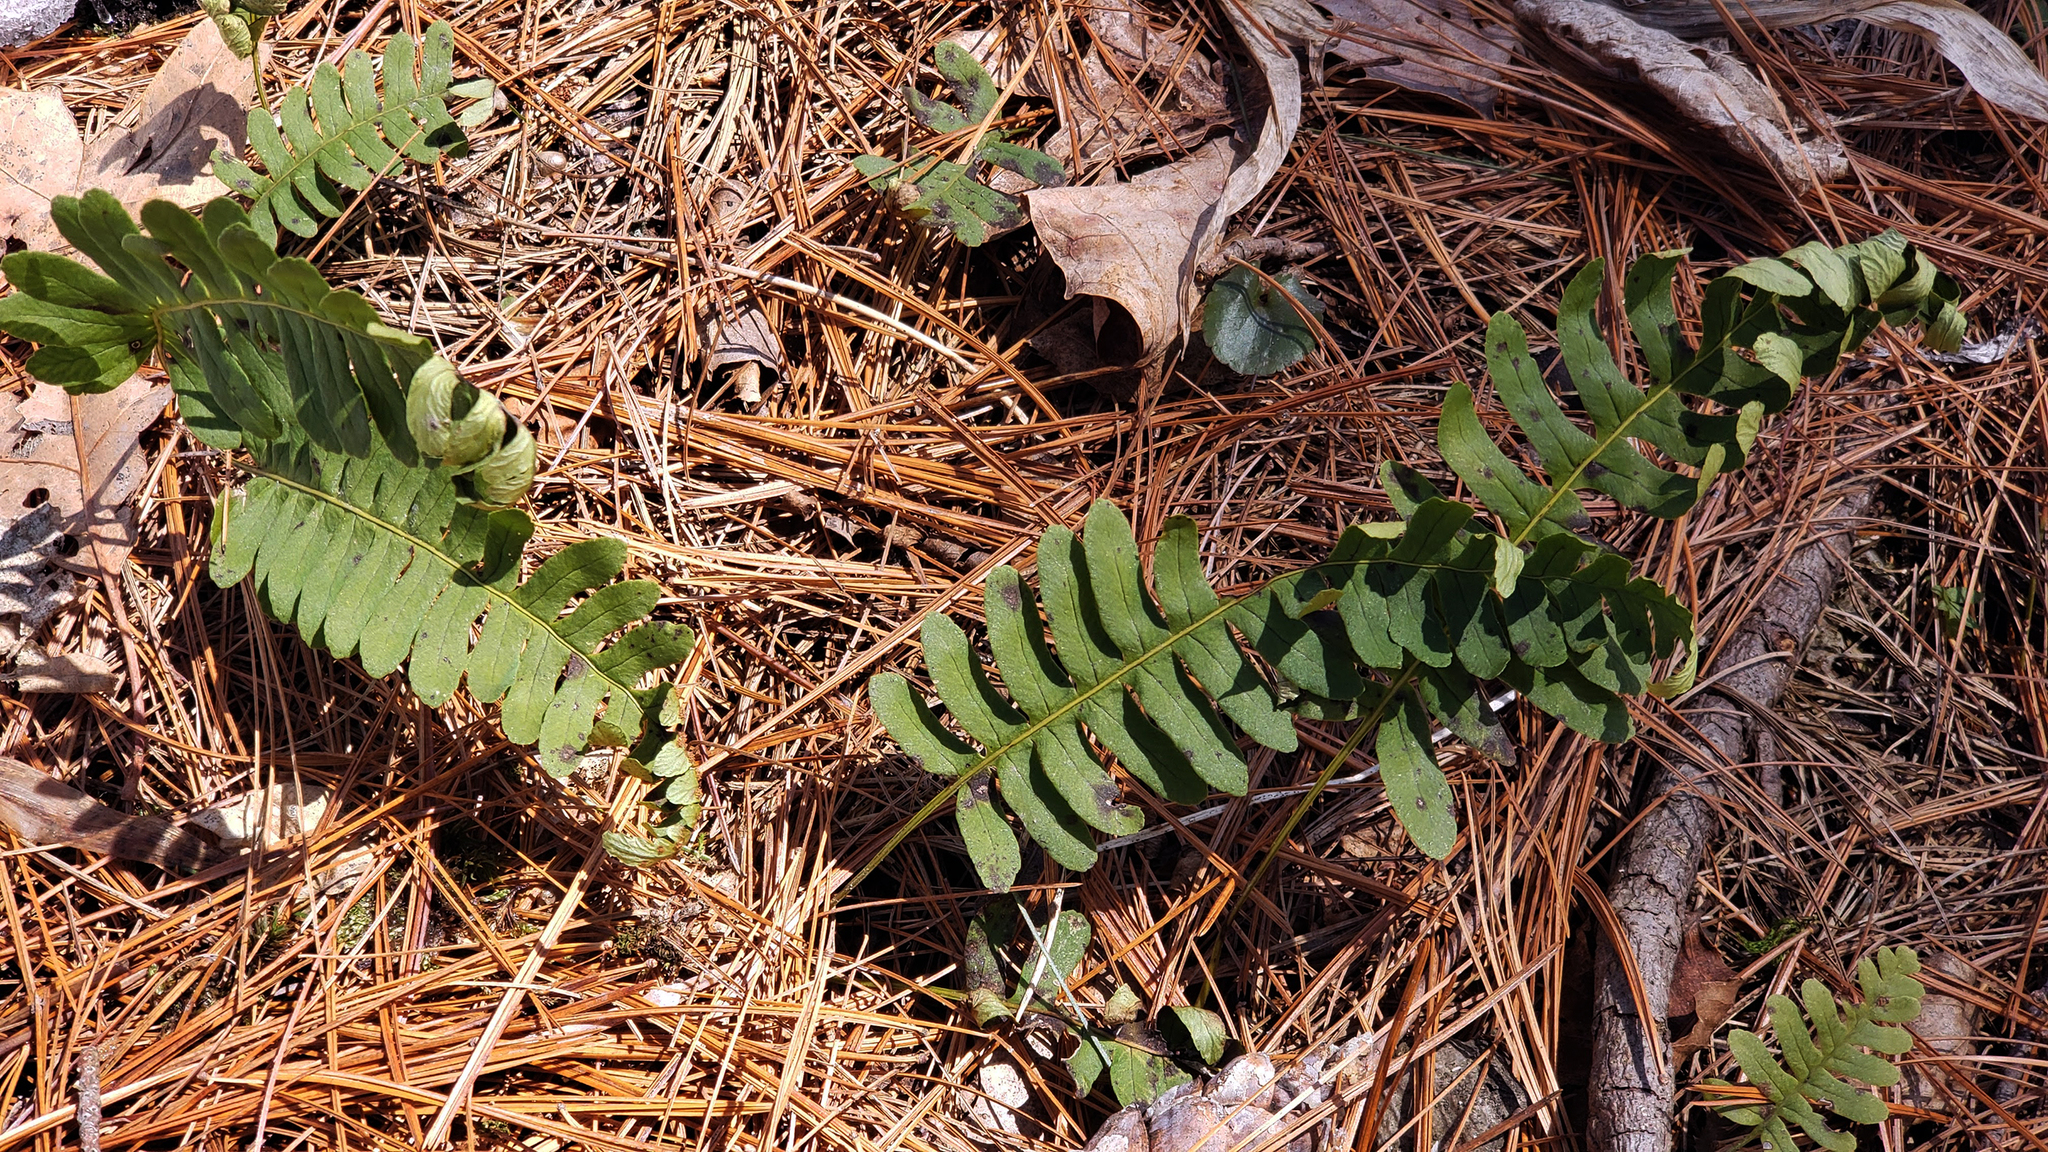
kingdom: Plantae
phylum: Tracheophyta
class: Polypodiopsida
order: Polypodiales
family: Polypodiaceae
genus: Polypodium
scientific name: Polypodium virginianum
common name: American wall fern
